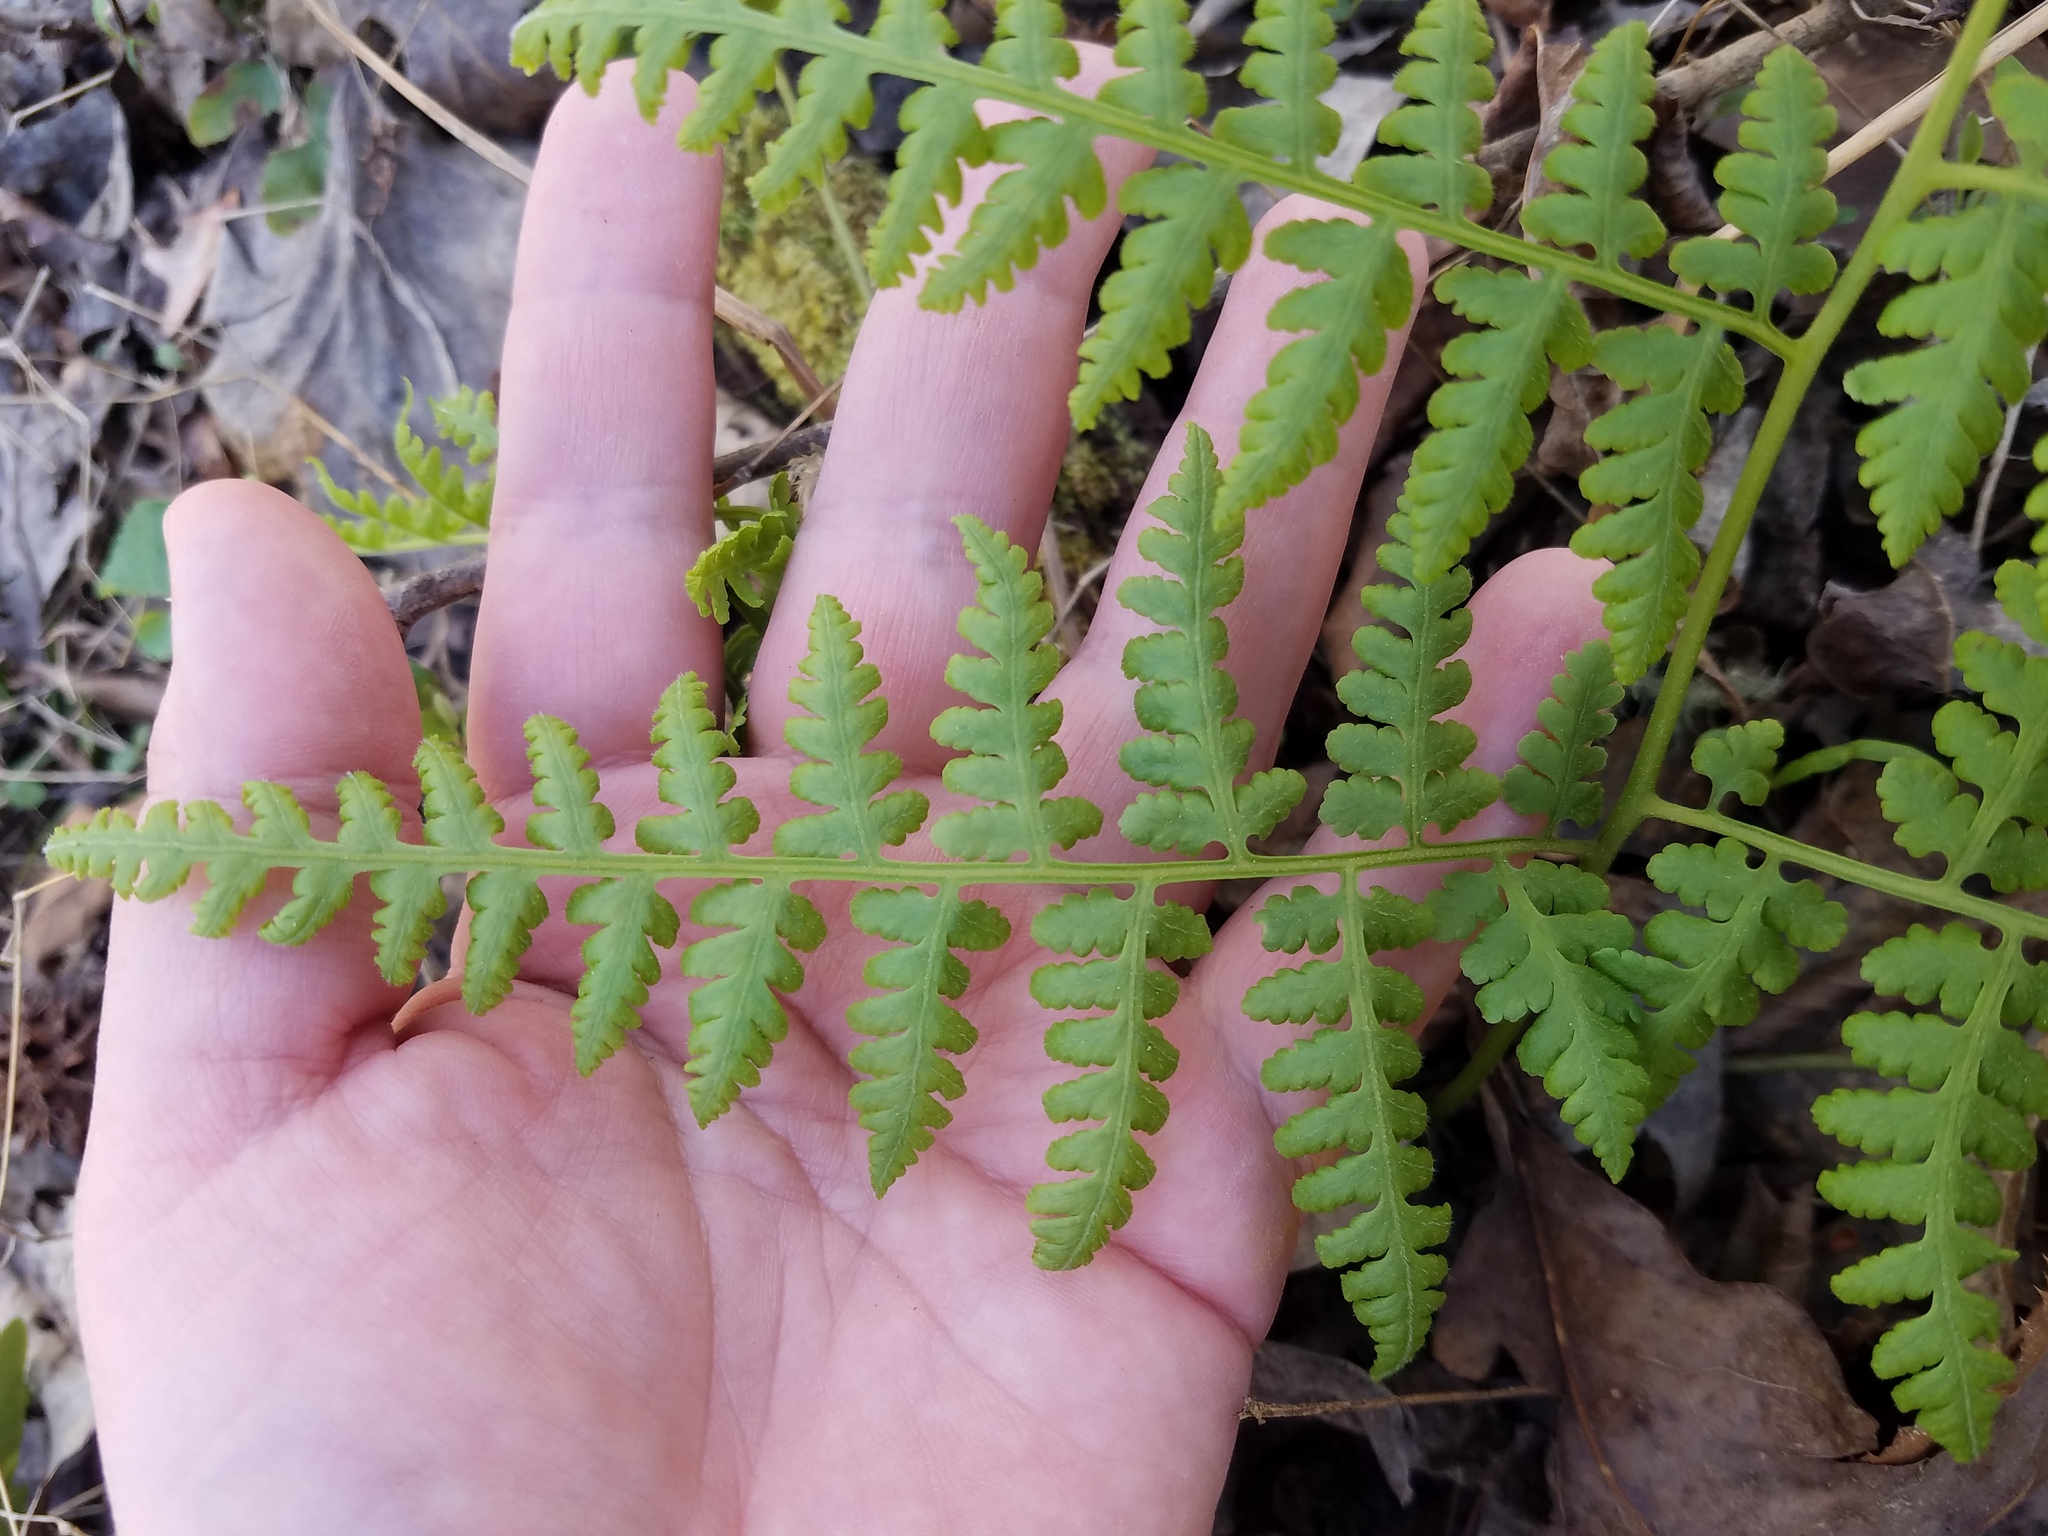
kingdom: Plantae
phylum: Tracheophyta
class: Polypodiopsida
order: Polypodiales
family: Thelypteridaceae
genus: Macrothelypteris
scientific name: Macrothelypteris torresiana
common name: Swordfern
